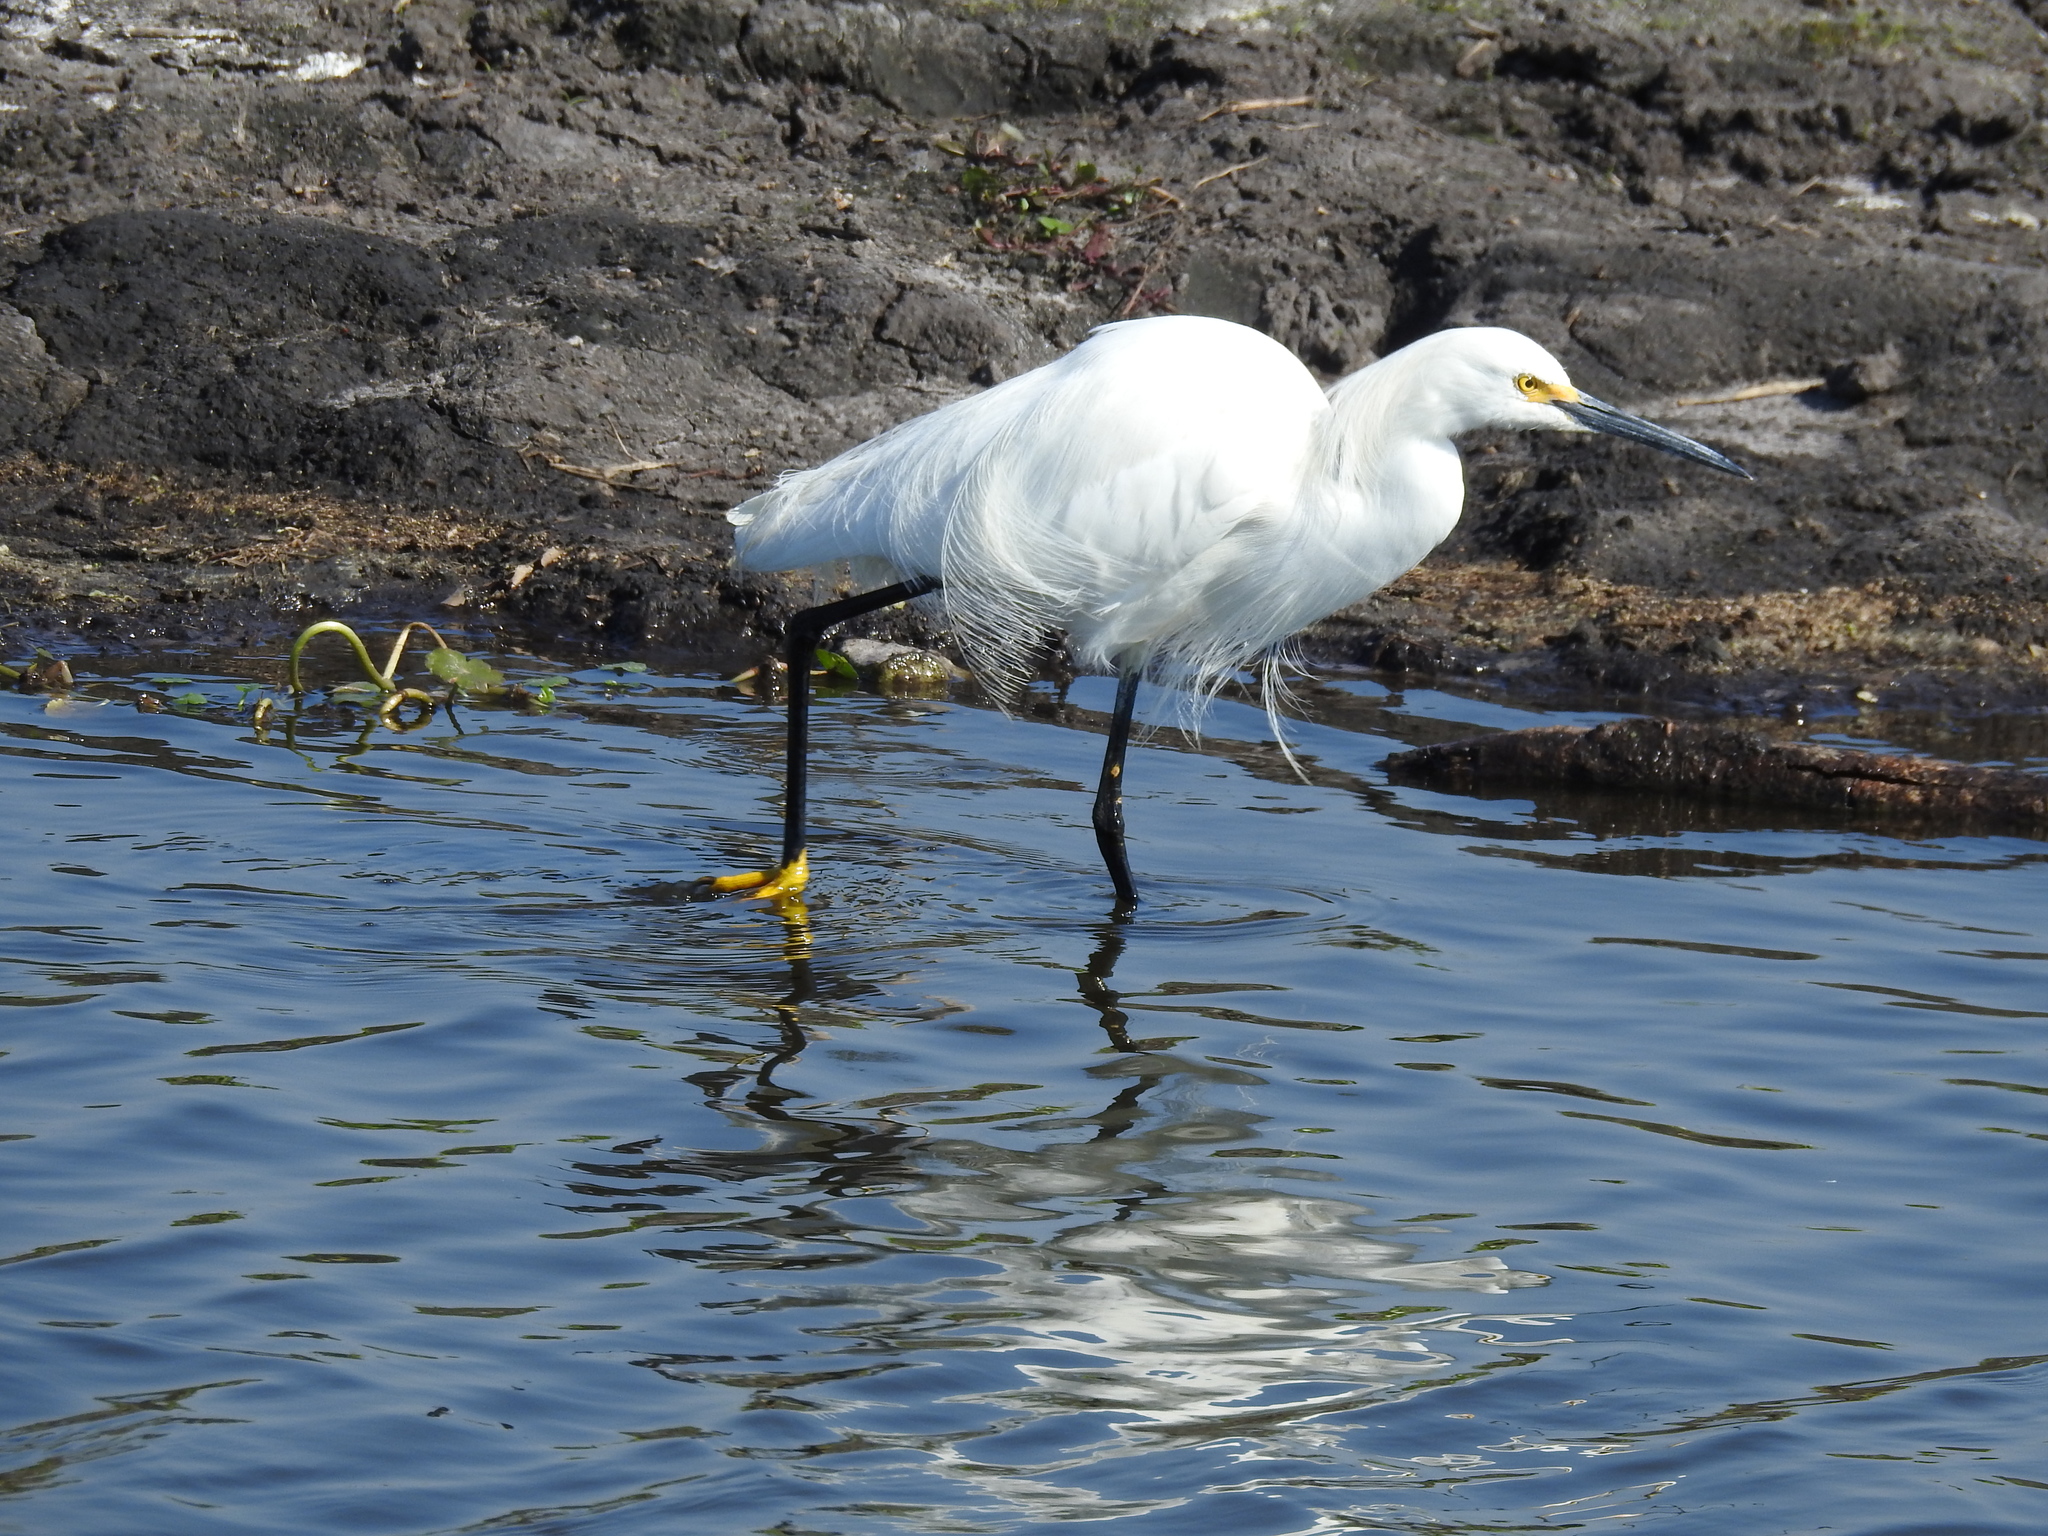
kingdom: Animalia
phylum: Chordata
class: Aves
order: Pelecaniformes
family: Ardeidae
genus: Egretta
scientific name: Egretta thula
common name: Snowy egret
